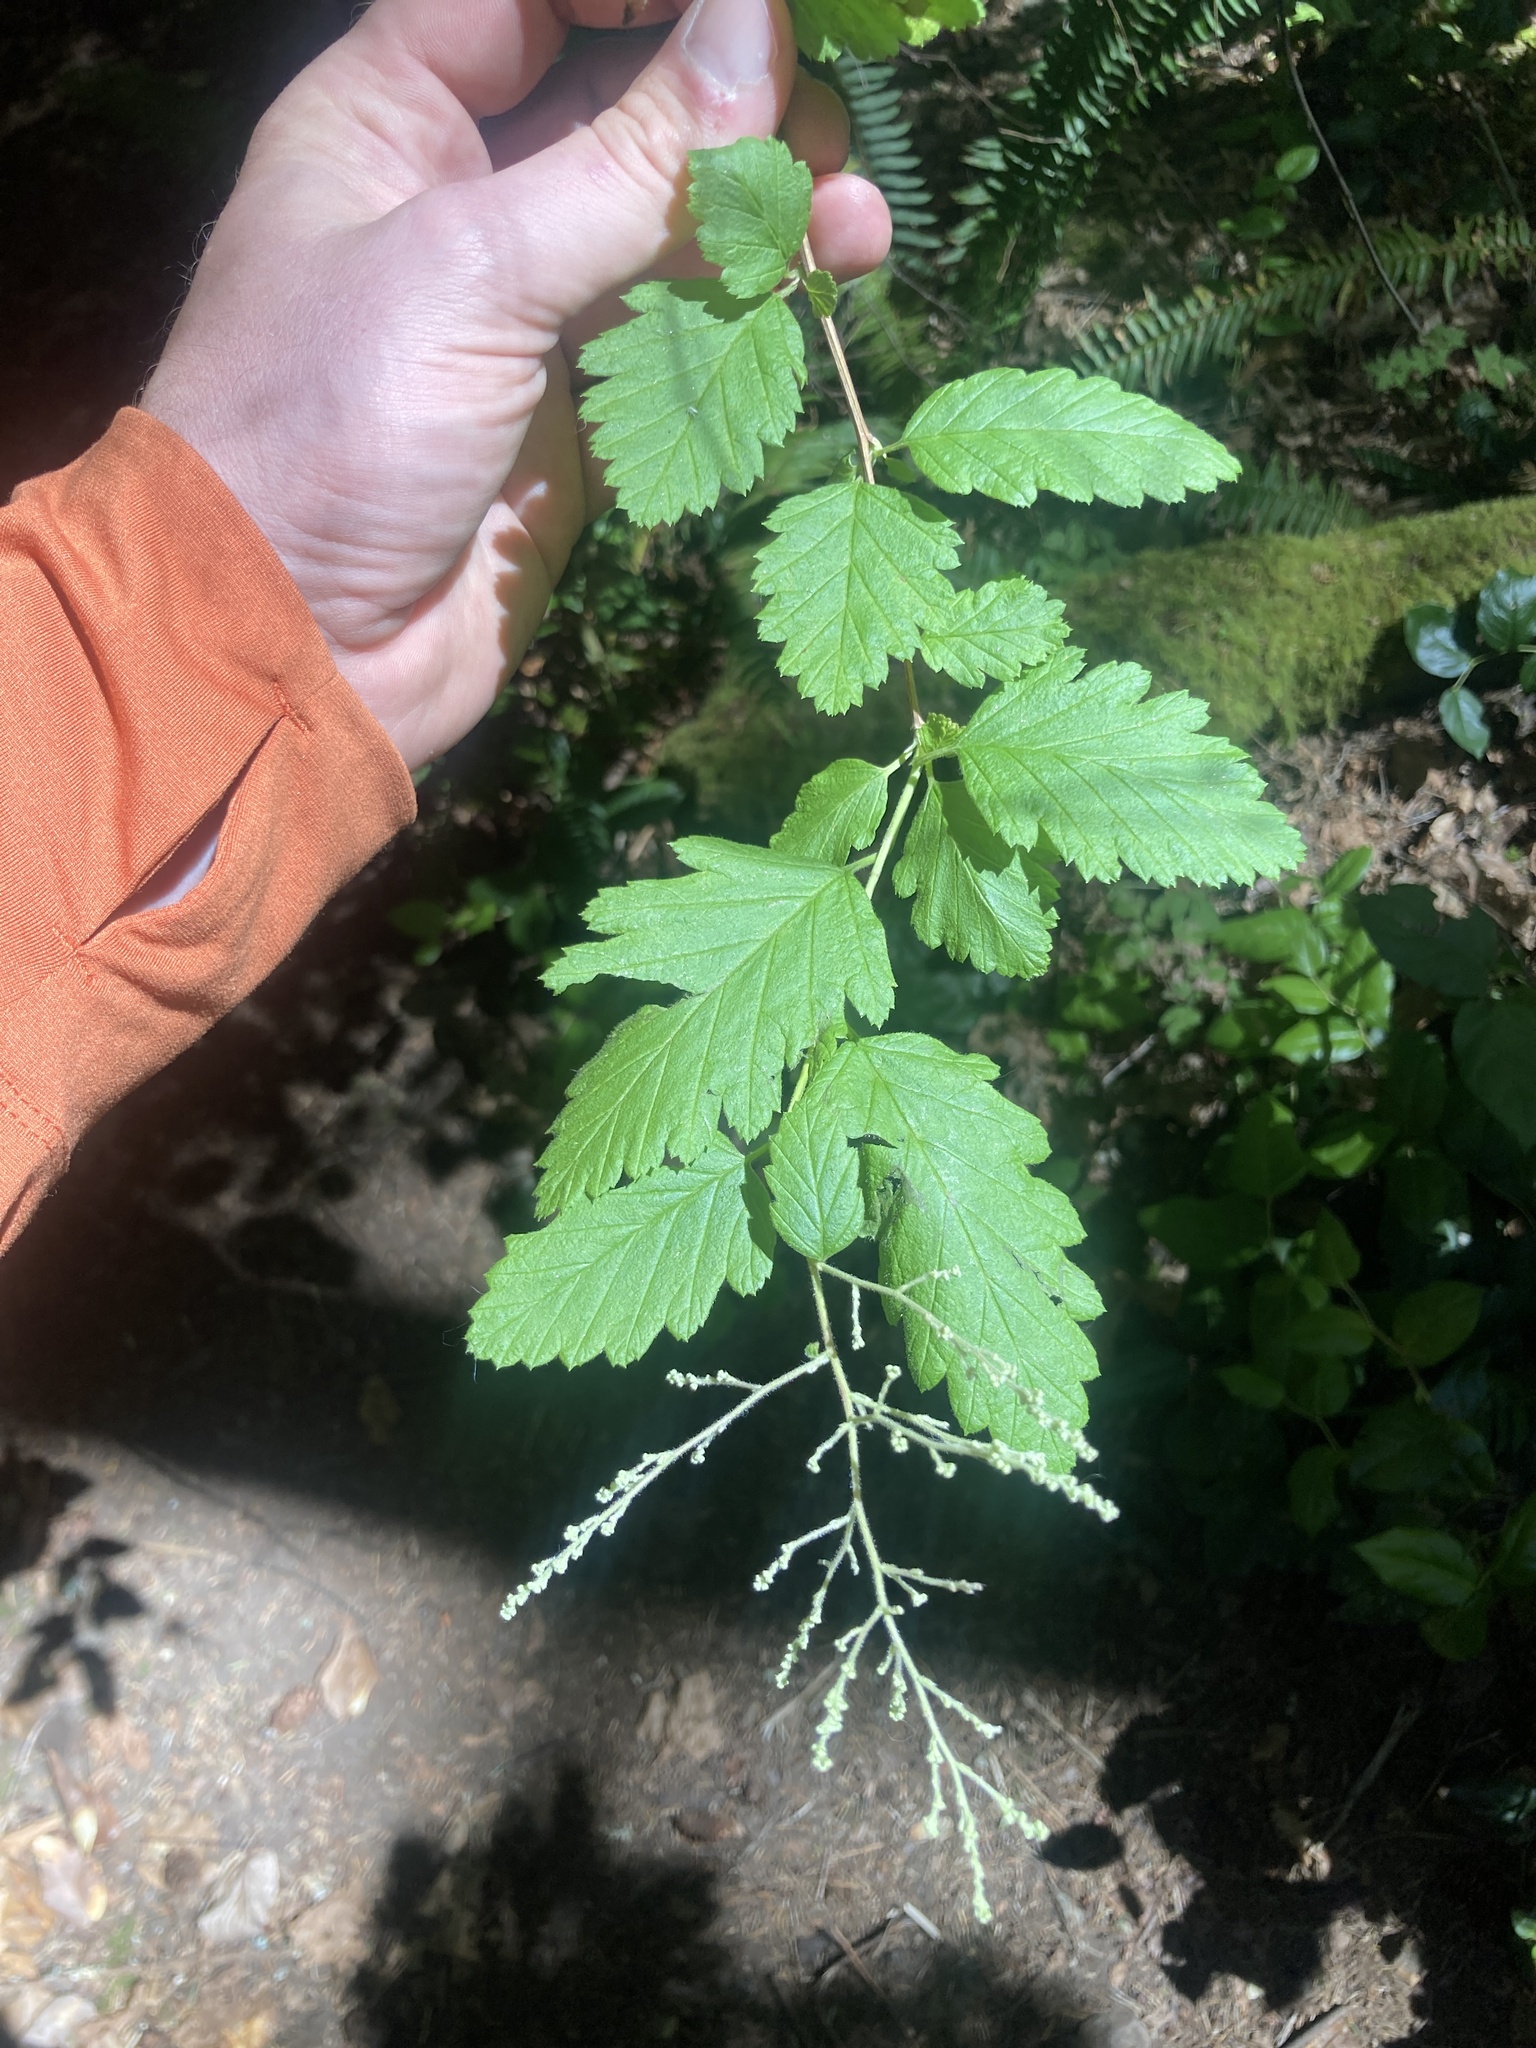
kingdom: Plantae
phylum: Tracheophyta
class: Magnoliopsida
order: Rosales
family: Rosaceae
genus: Holodiscus
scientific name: Holodiscus discolor
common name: Oceanspray
